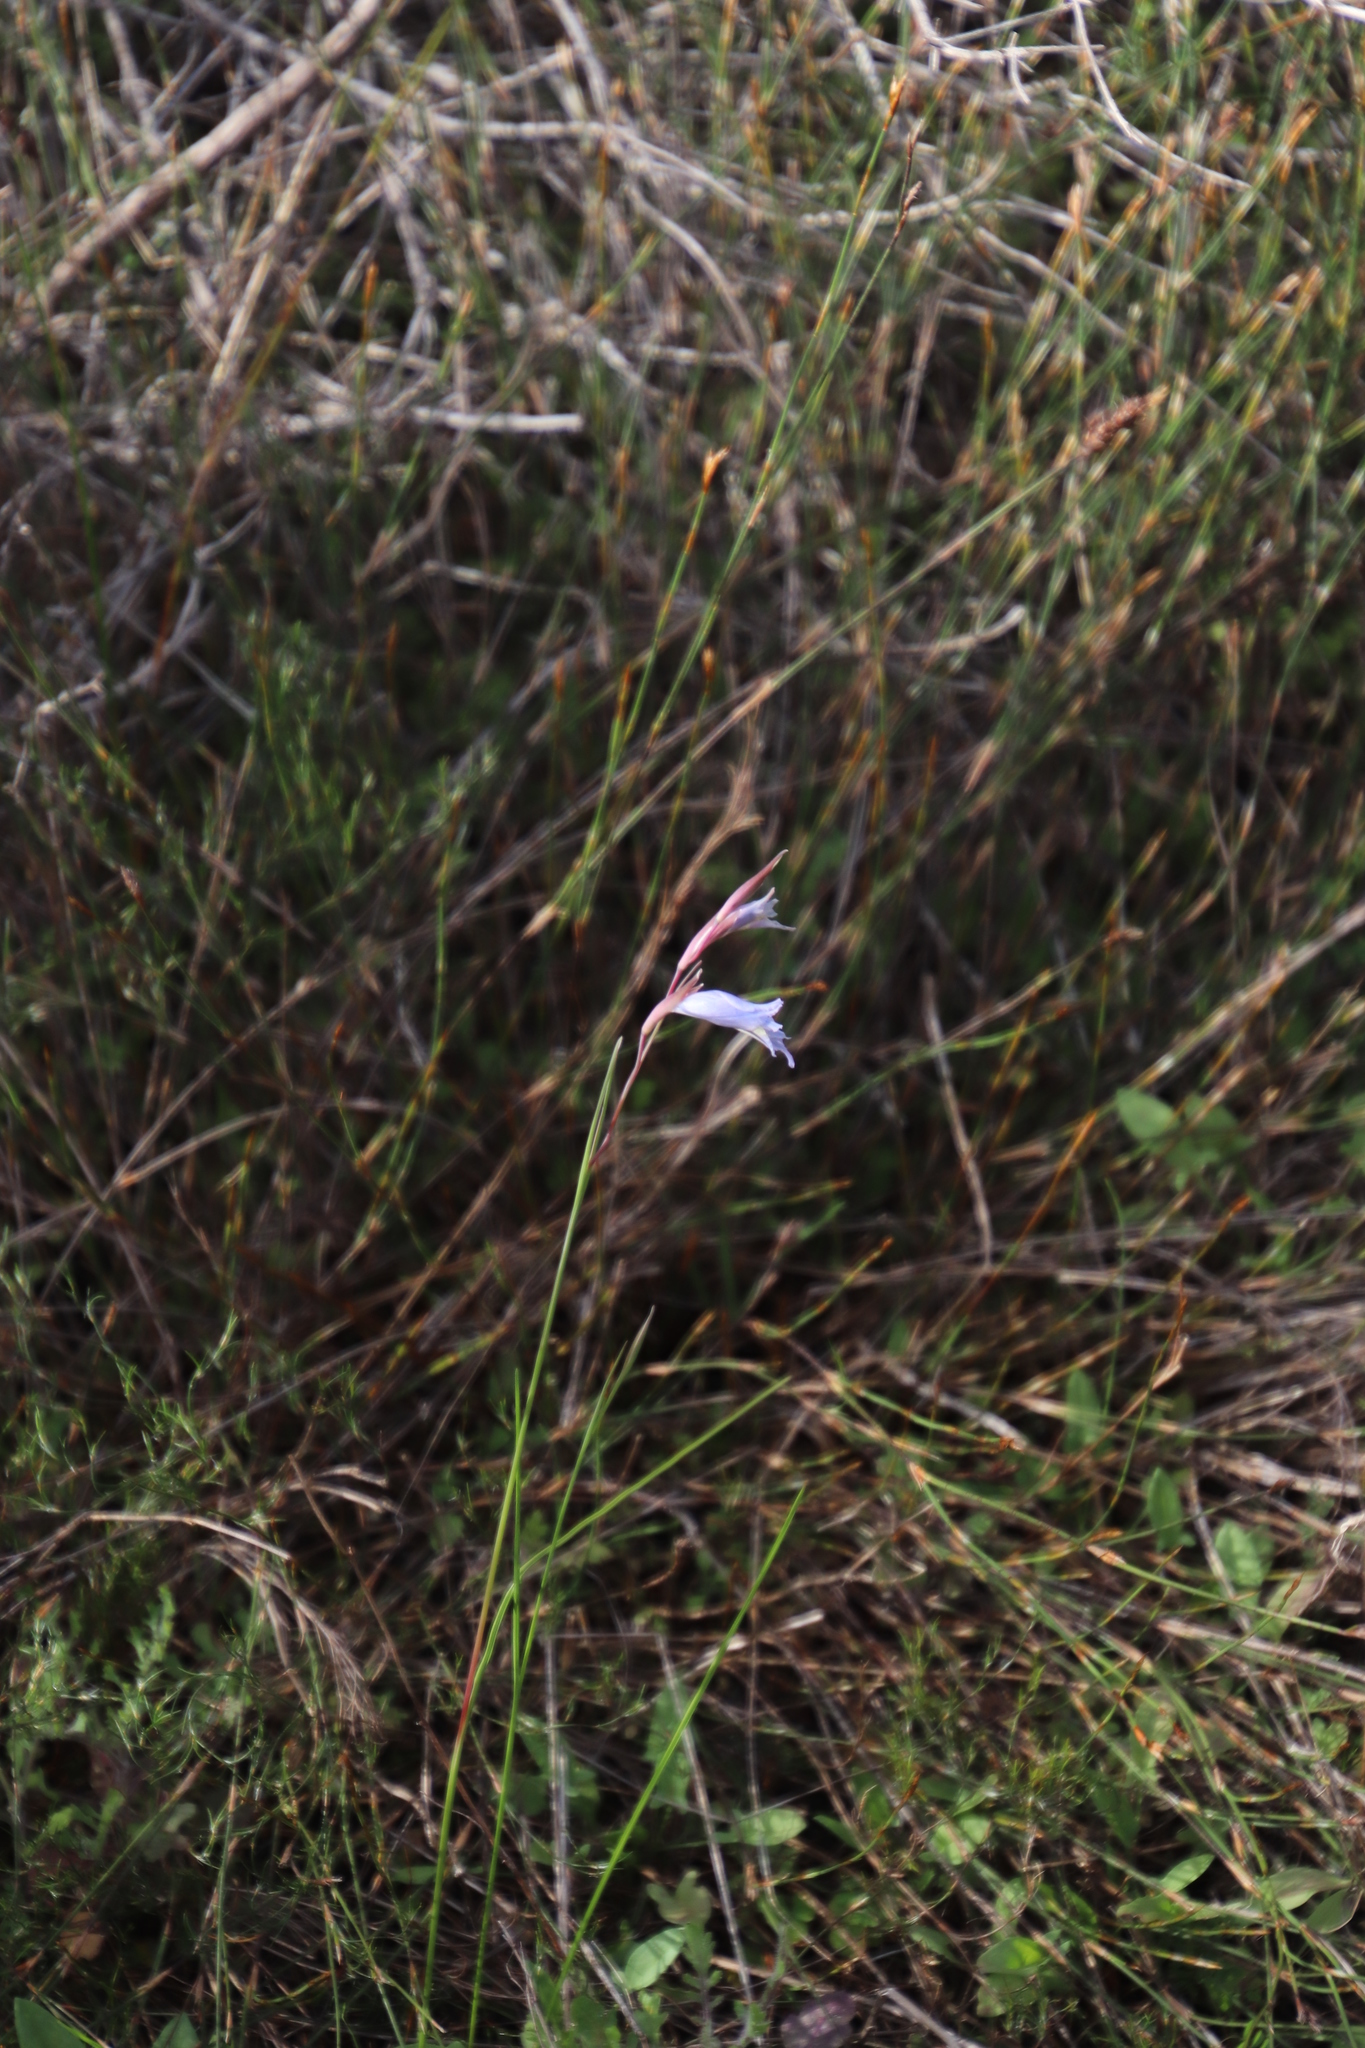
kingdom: Plantae
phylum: Tracheophyta
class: Liliopsida
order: Asparagales
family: Iridaceae
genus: Gladiolus
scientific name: Gladiolus gracilis
